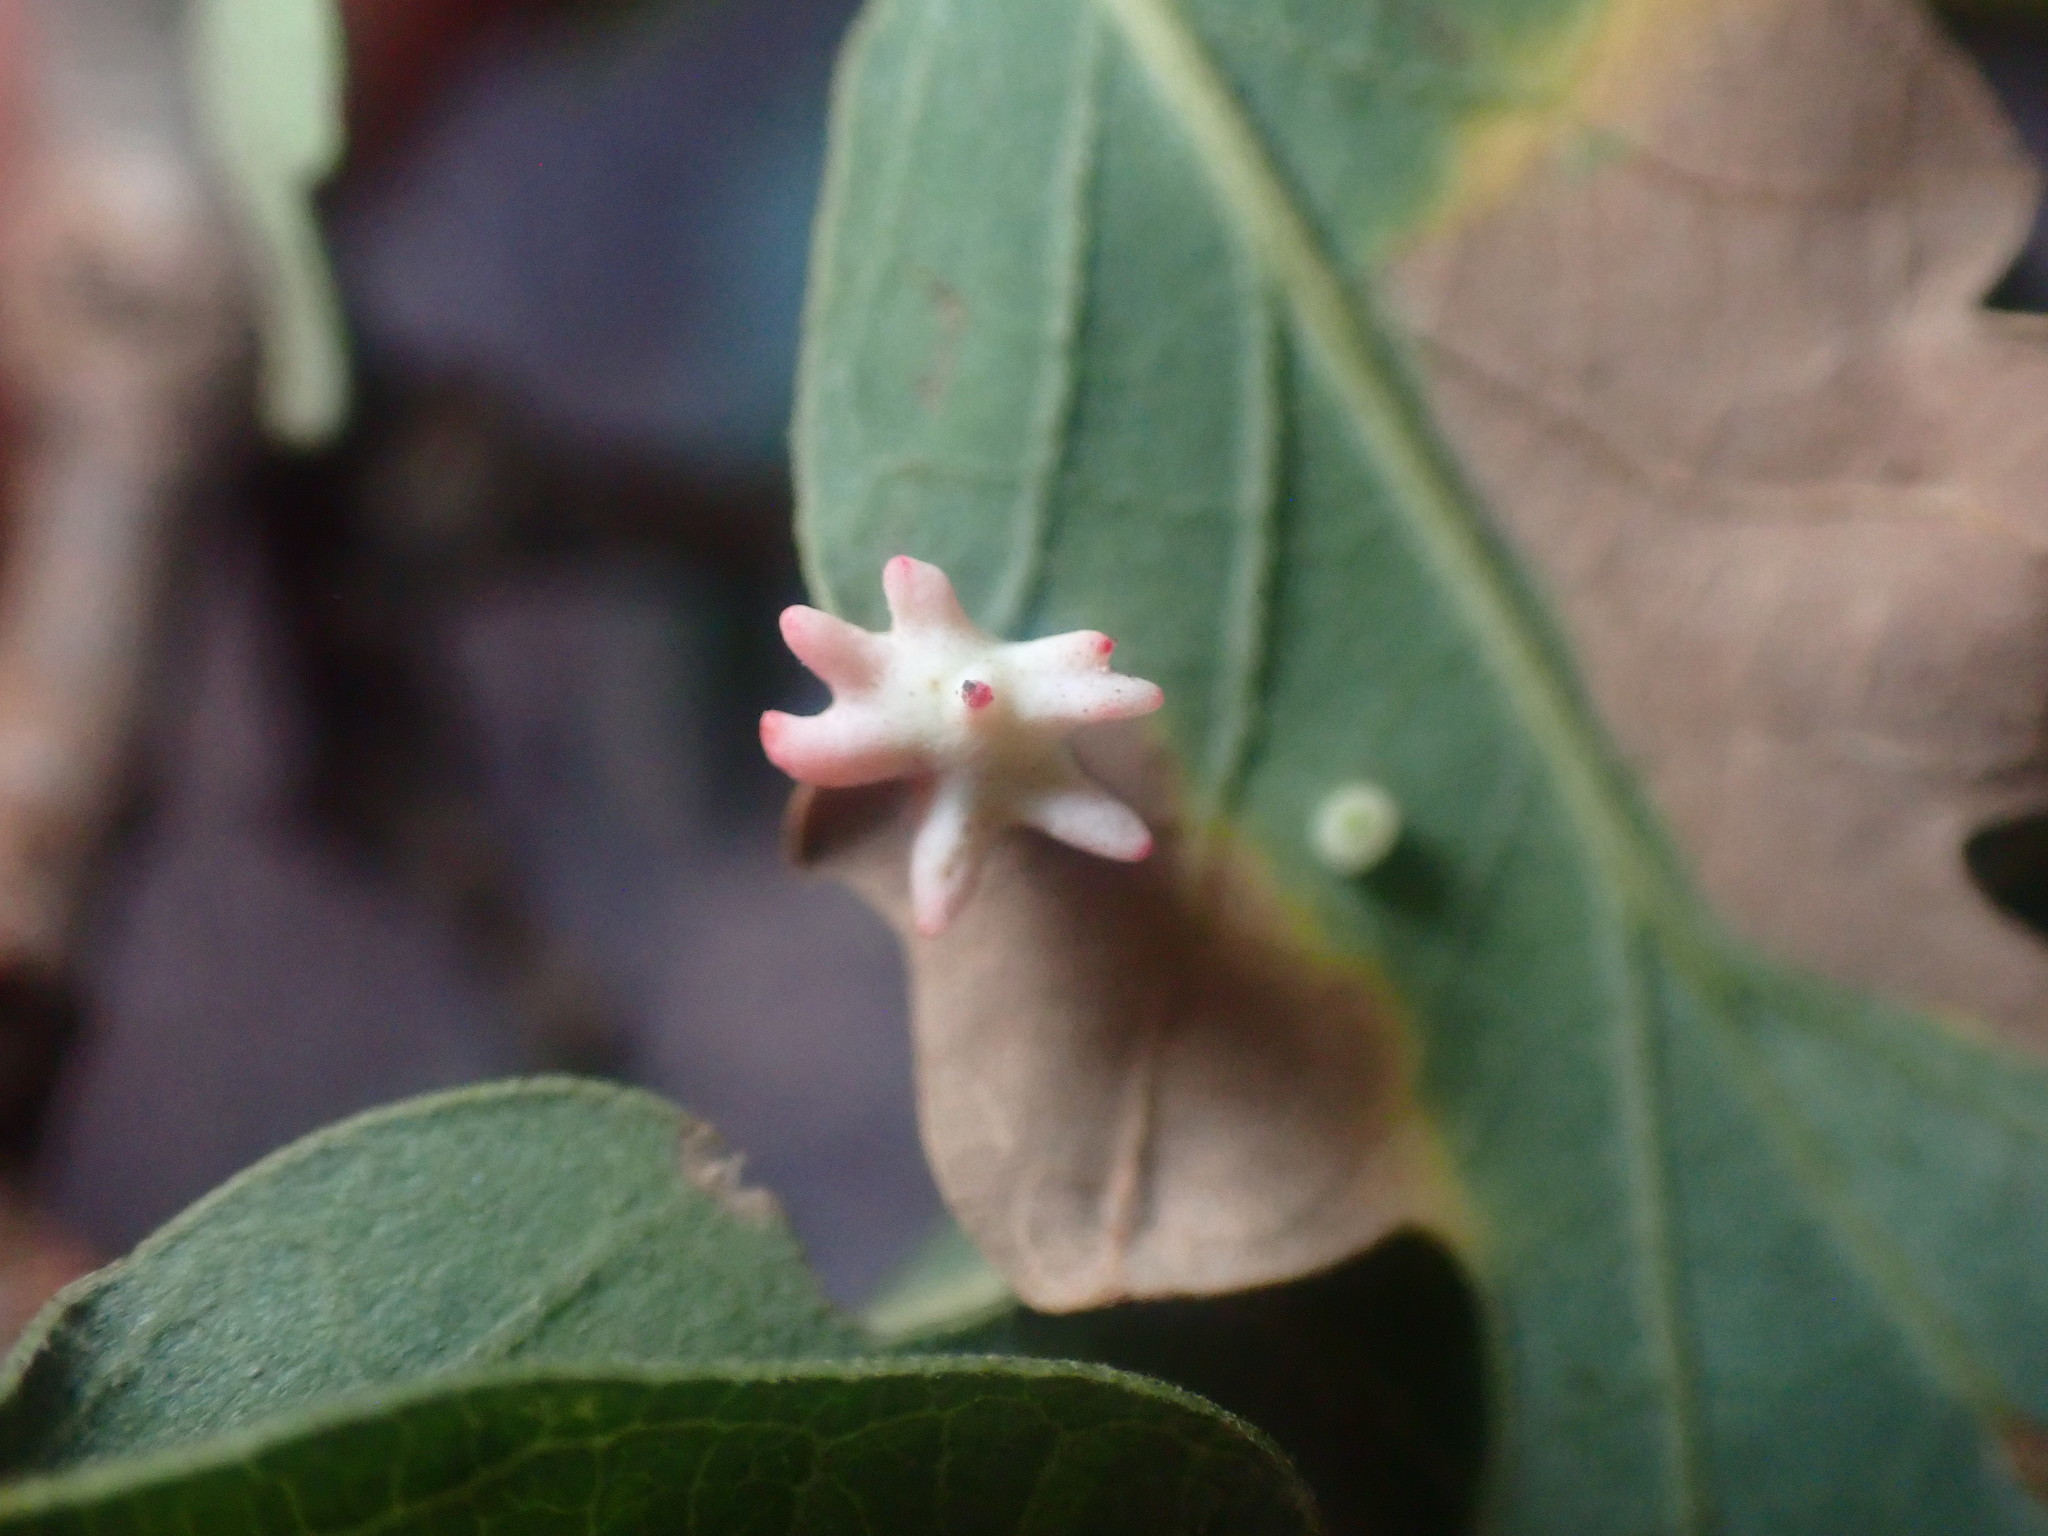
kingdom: Animalia
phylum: Arthropoda
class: Insecta
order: Hymenoptera
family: Cynipidae
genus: Cynips
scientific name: Cynips douglasi
